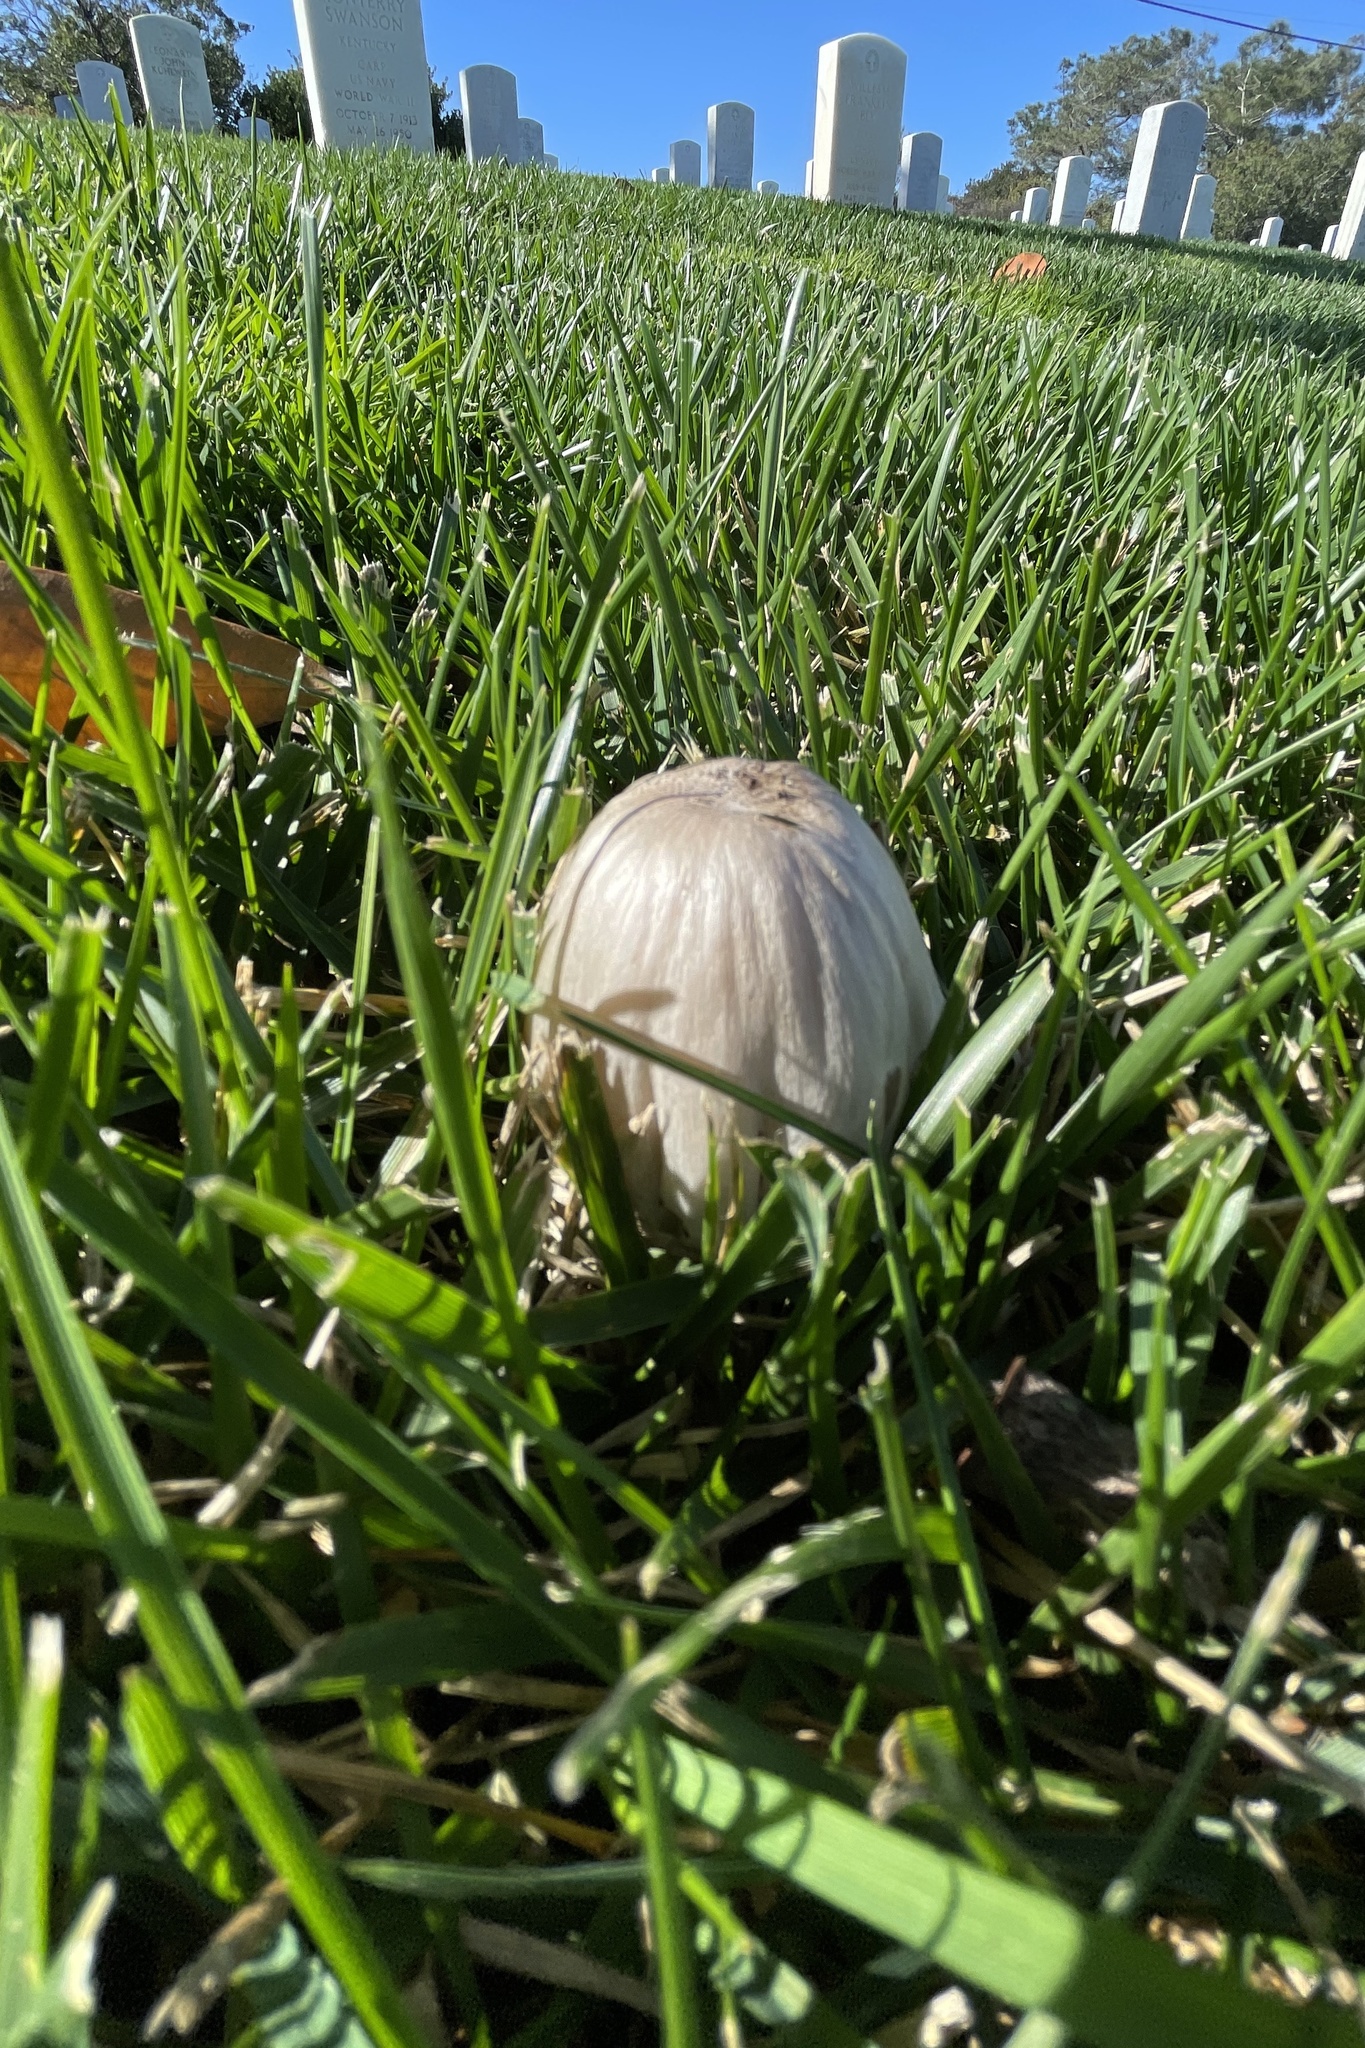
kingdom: Fungi
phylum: Basidiomycota
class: Agaricomycetes
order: Agaricales
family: Psathyrellaceae
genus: Coprinopsis
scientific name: Coprinopsis atramentaria
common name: Common ink-cap
